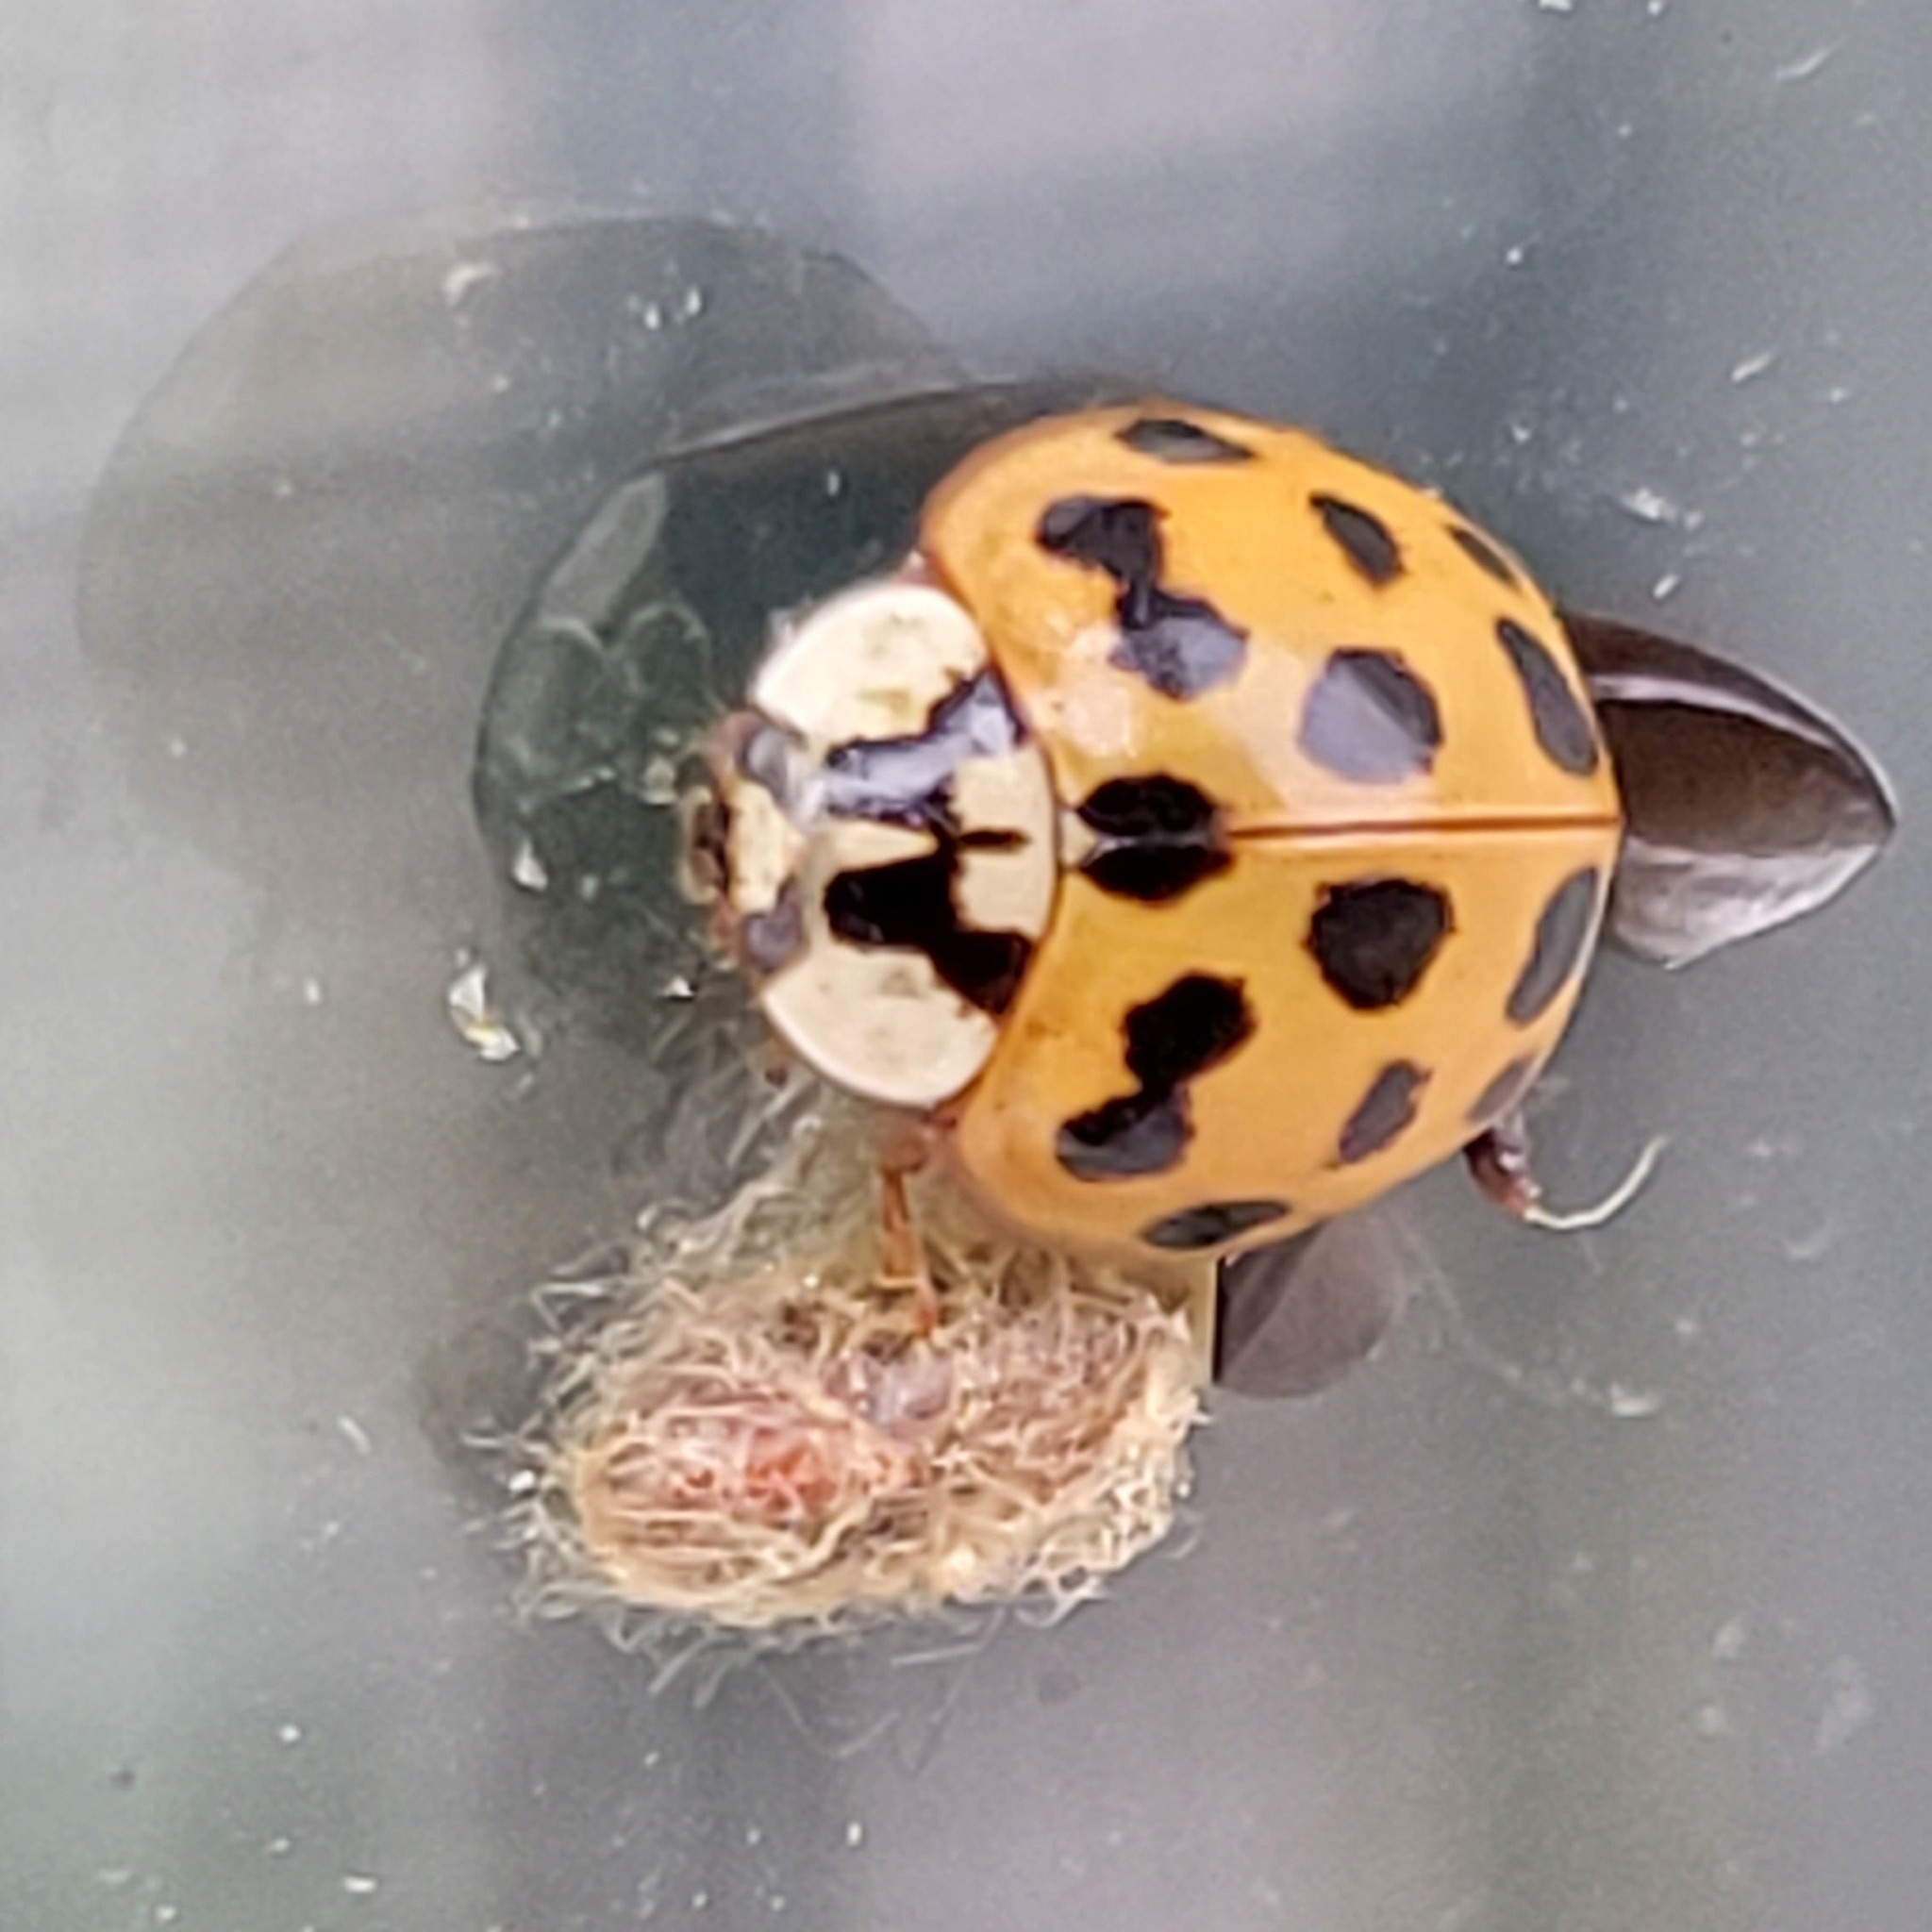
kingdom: Animalia
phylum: Arthropoda
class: Insecta
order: Hymenoptera
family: Braconidae
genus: Dinocampus
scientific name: Dinocampus coccinellae
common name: Braconid wasp
